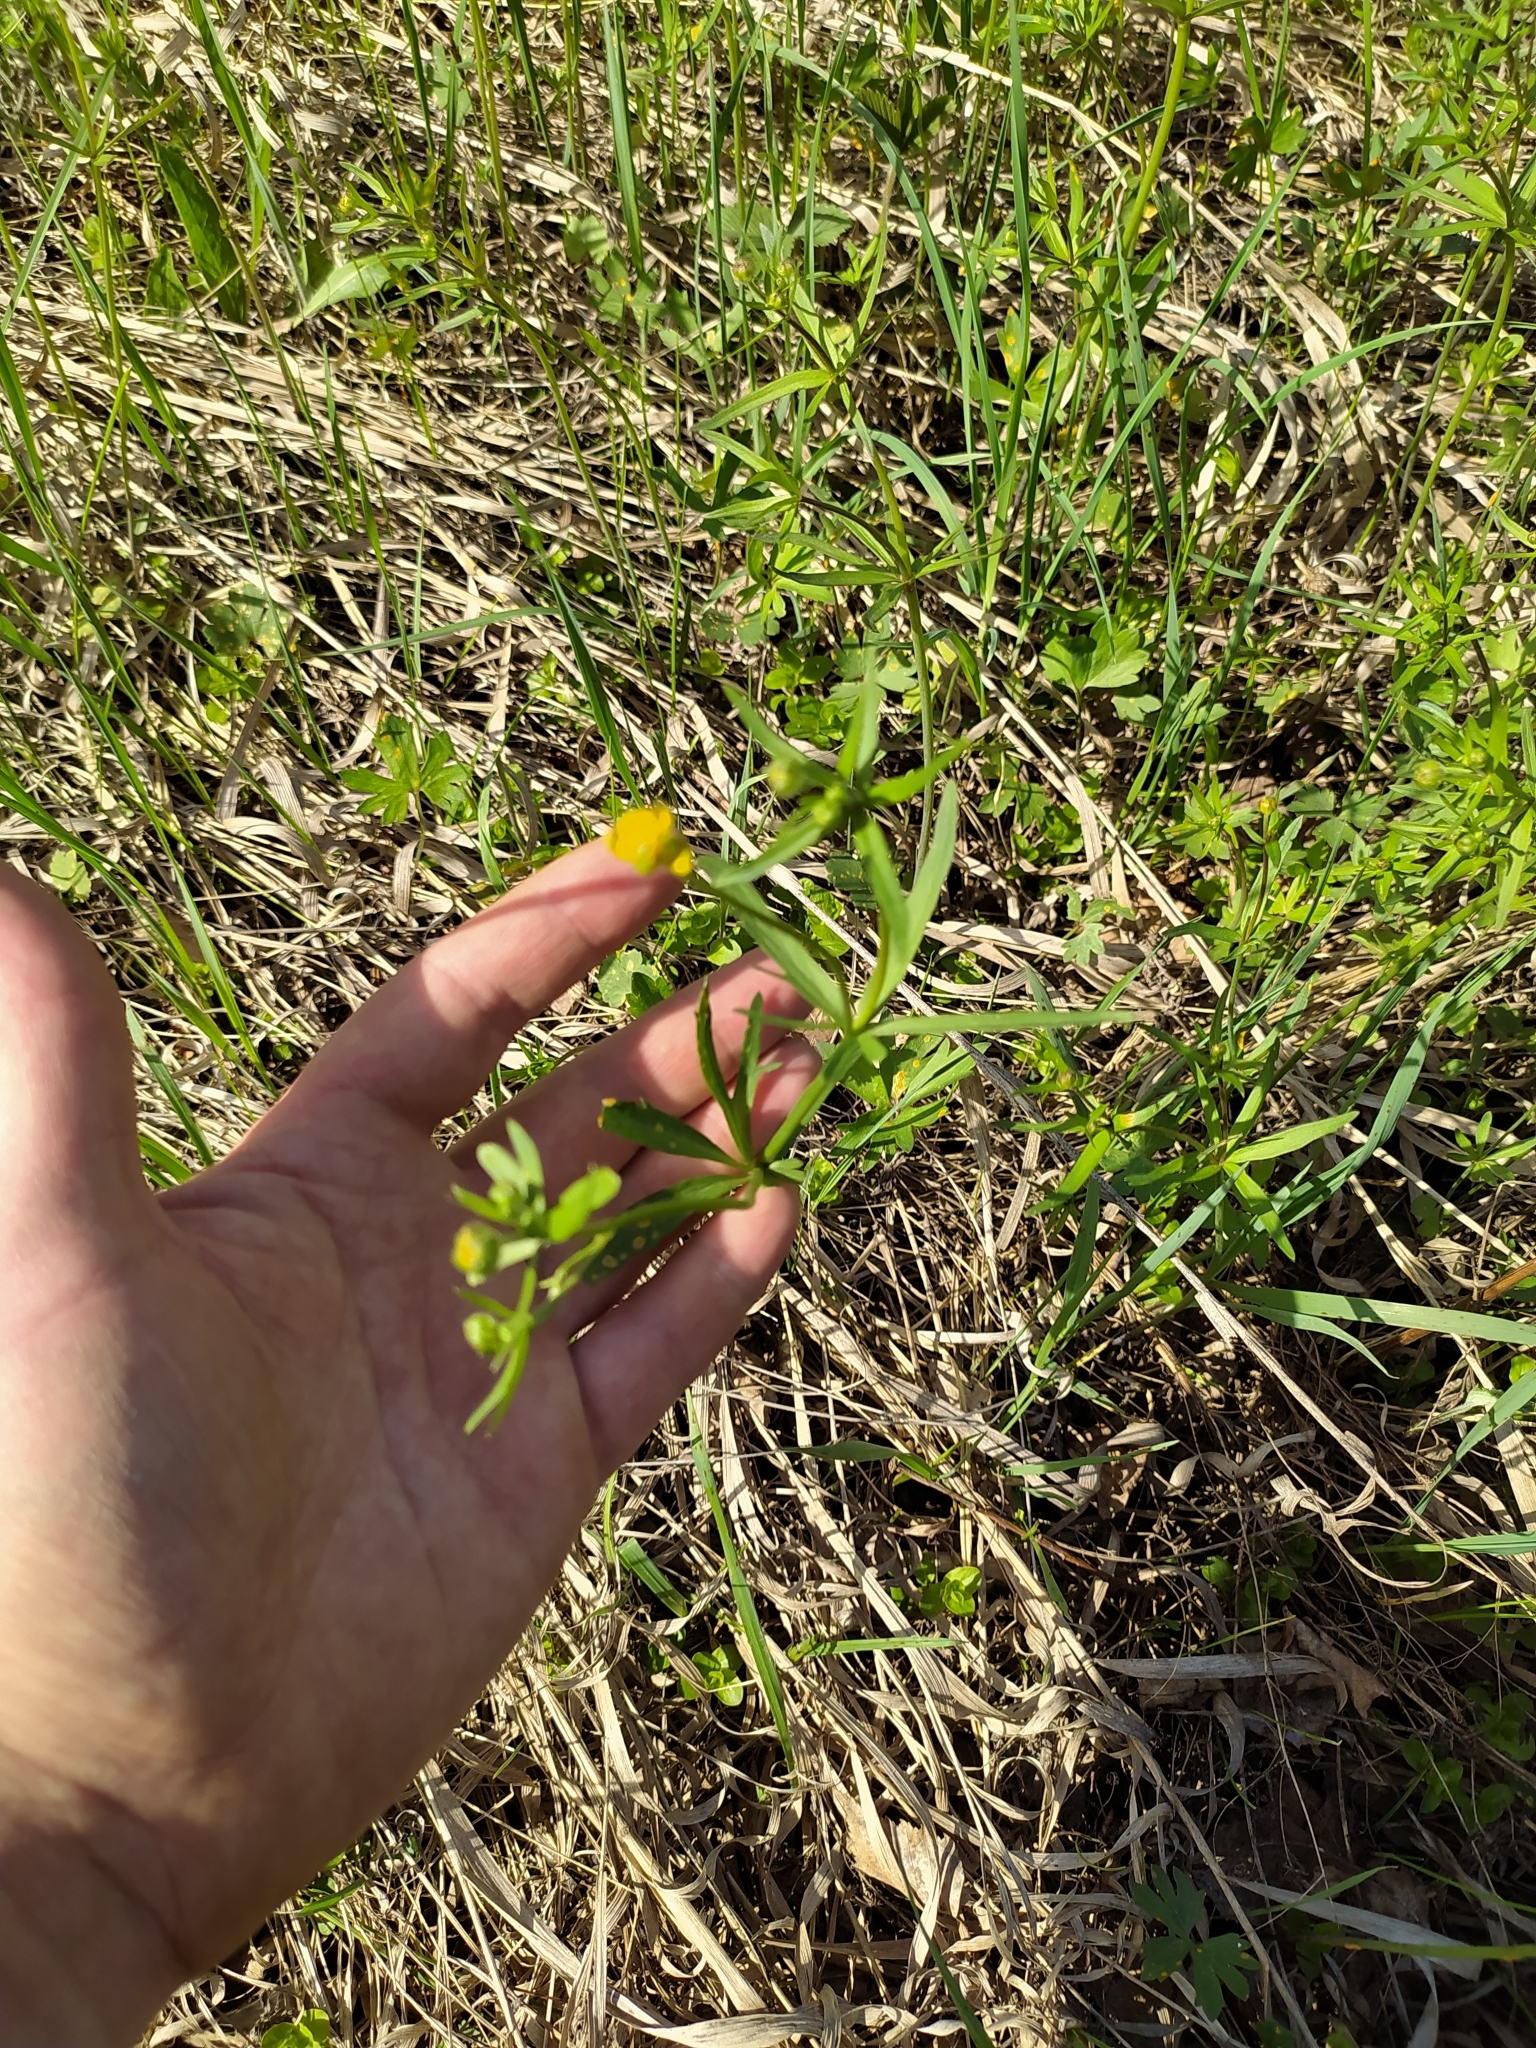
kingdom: Plantae
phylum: Tracheophyta
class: Magnoliopsida
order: Ranunculales
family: Ranunculaceae
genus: Ranunculus
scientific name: Ranunculus auricomus
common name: Goldilocks buttercup
